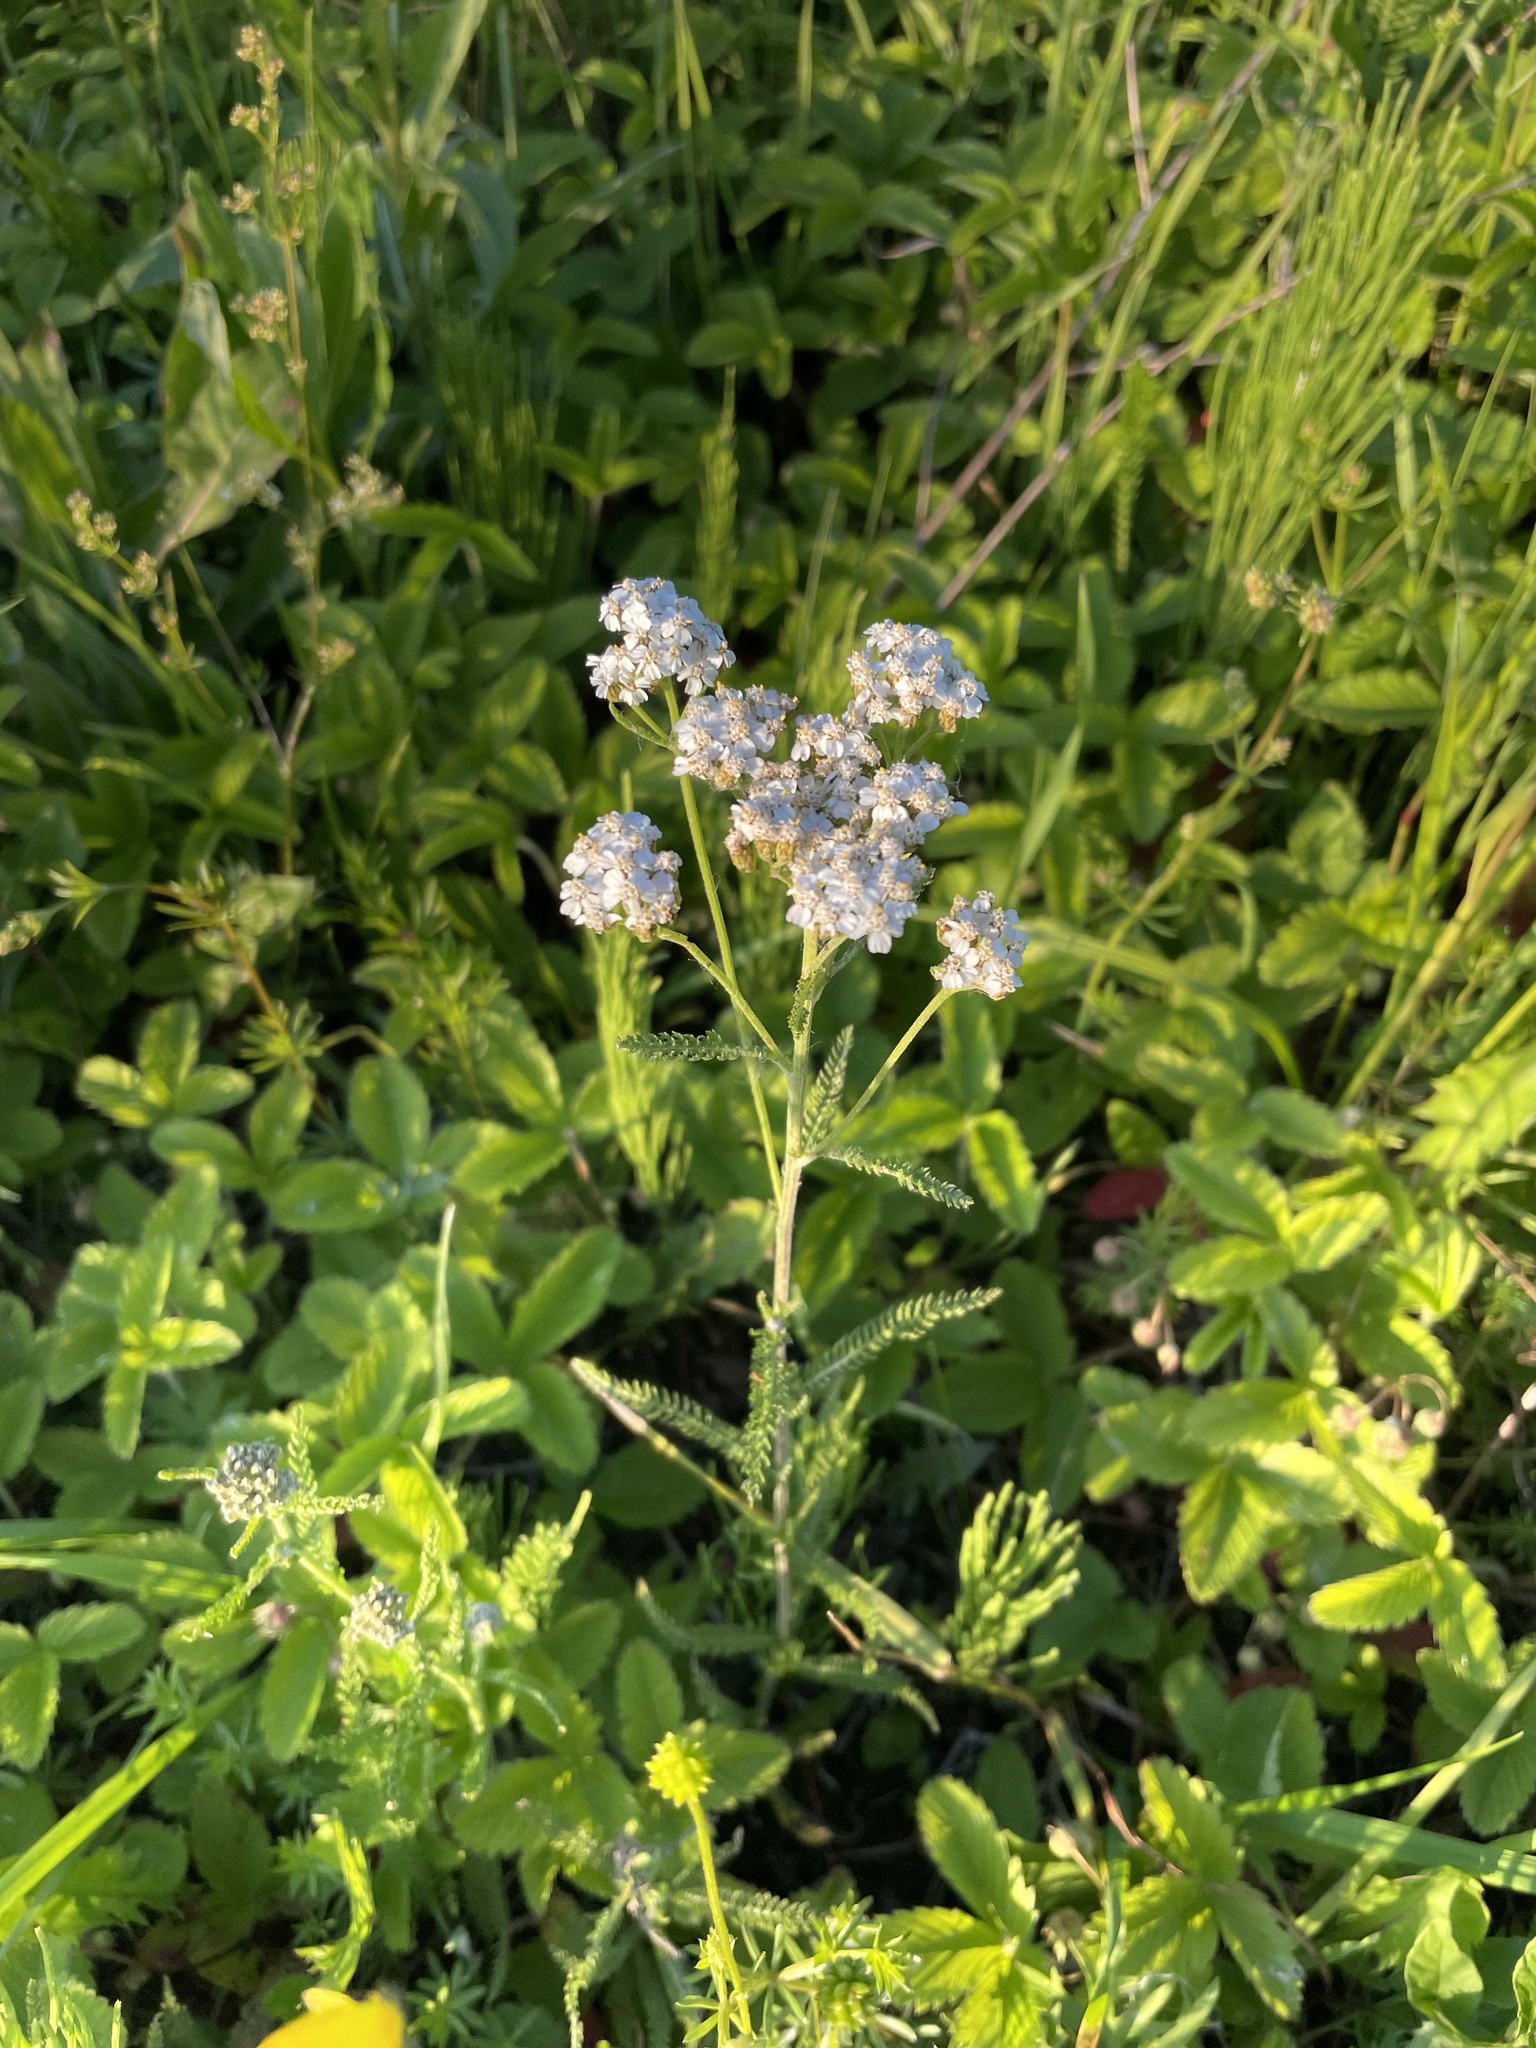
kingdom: Plantae
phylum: Tracheophyta
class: Magnoliopsida
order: Asterales
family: Asteraceae
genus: Achillea
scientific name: Achillea millefolium
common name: Yarrow
